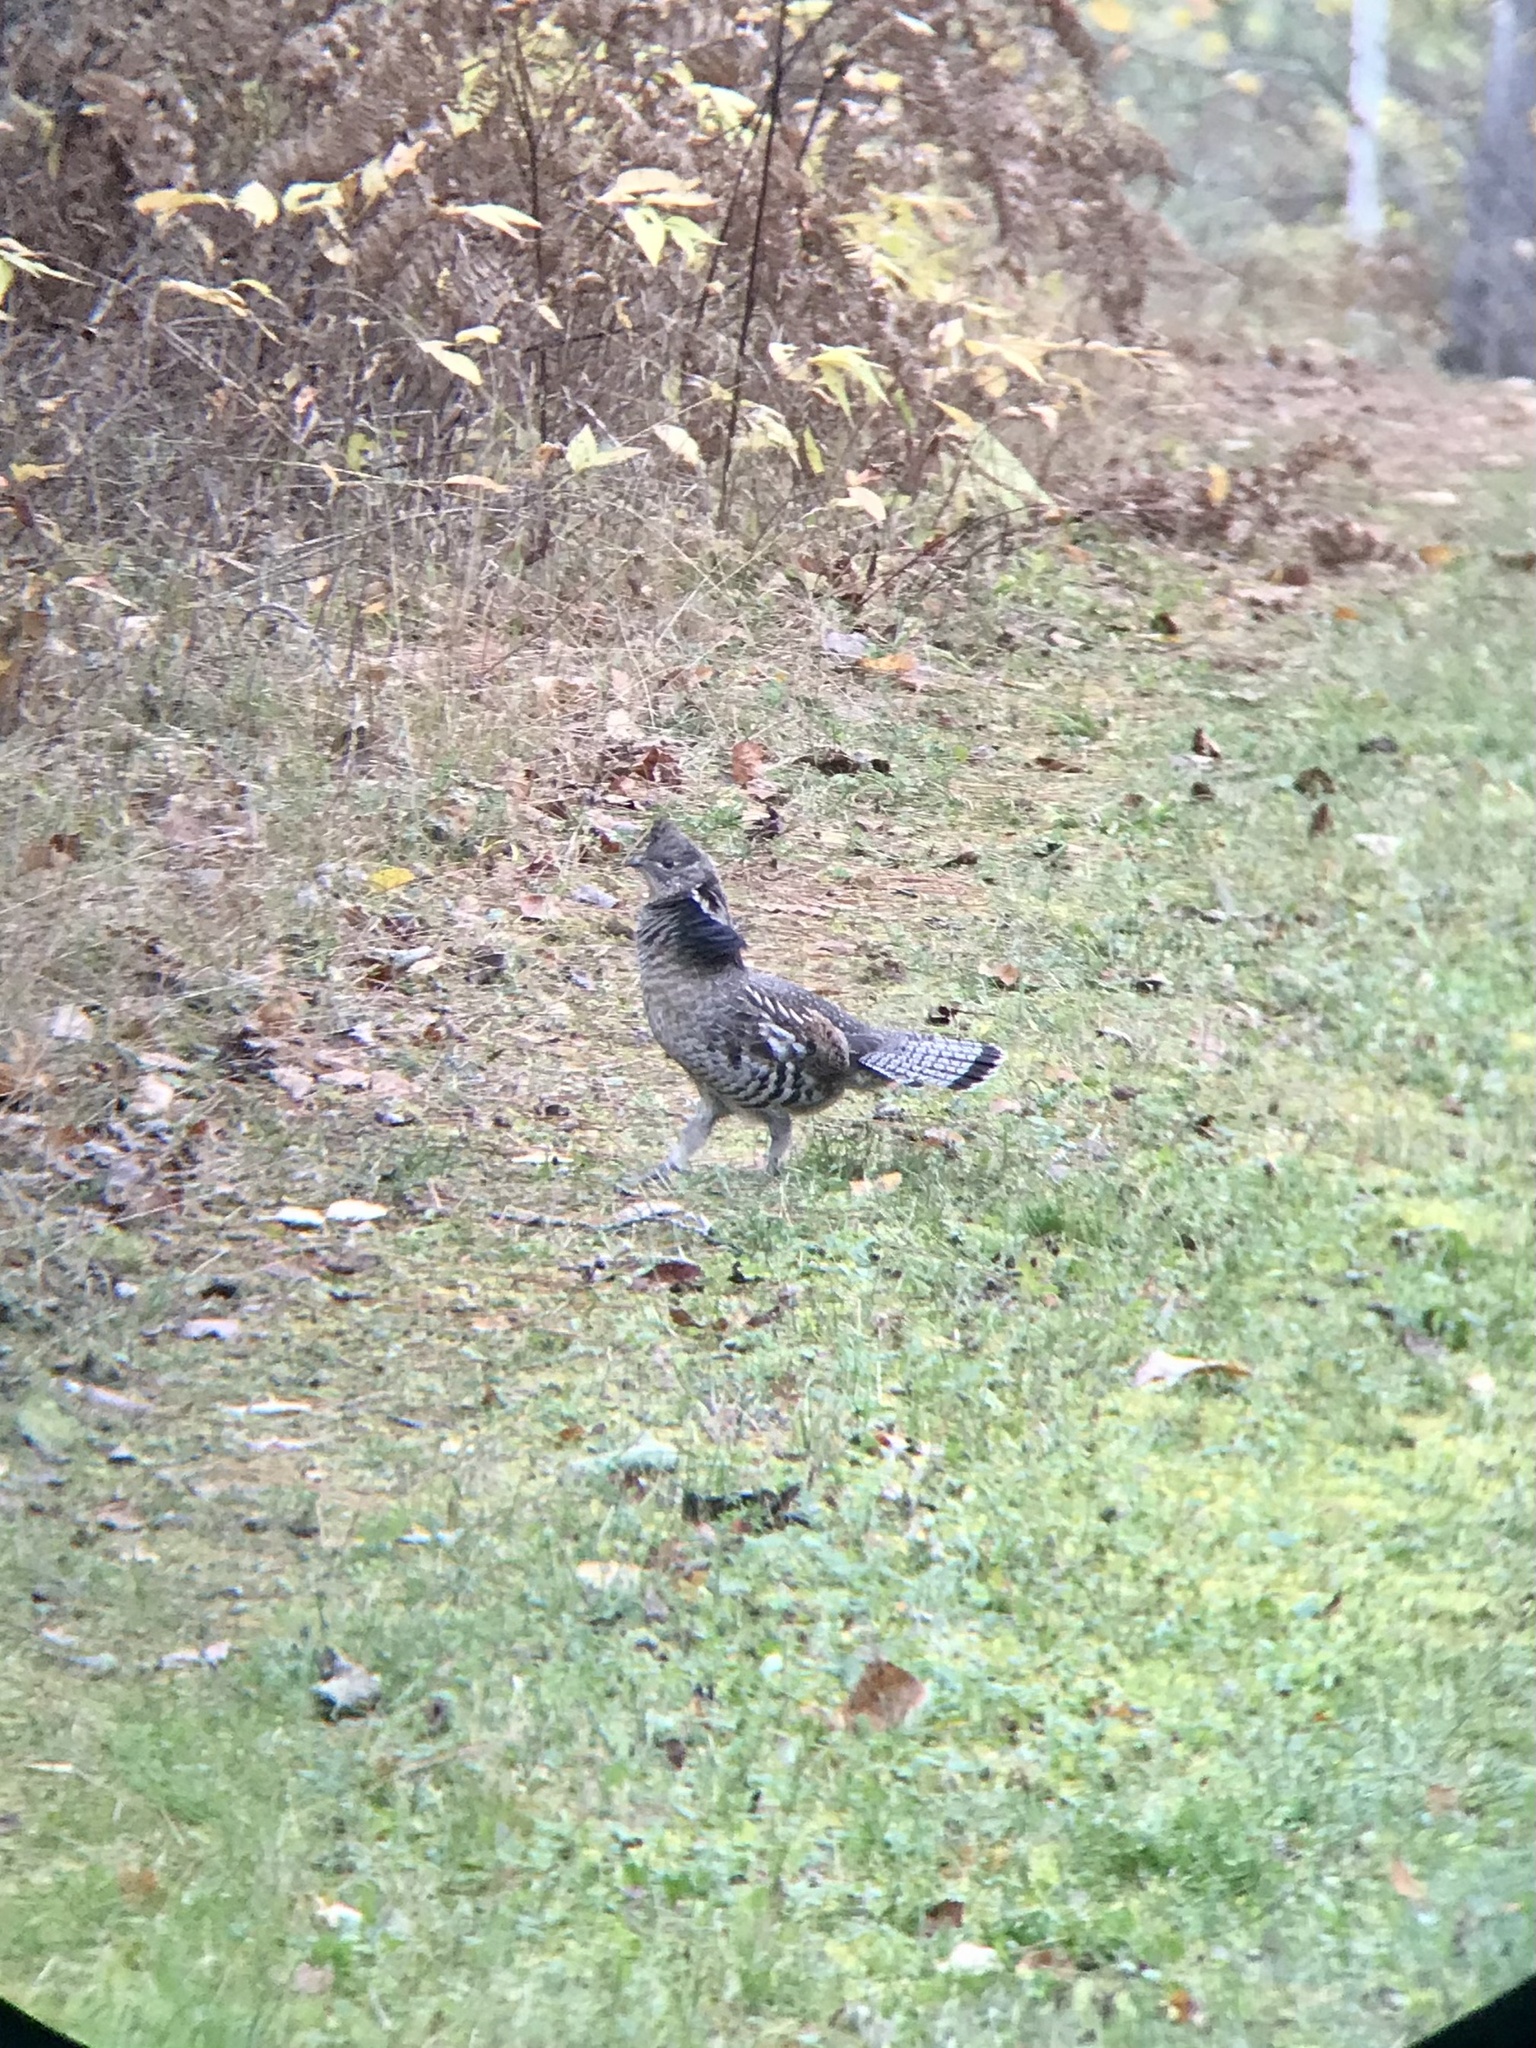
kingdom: Animalia
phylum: Chordata
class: Aves
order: Galliformes
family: Phasianidae
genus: Bonasa
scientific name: Bonasa umbellus
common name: Ruffed grouse
